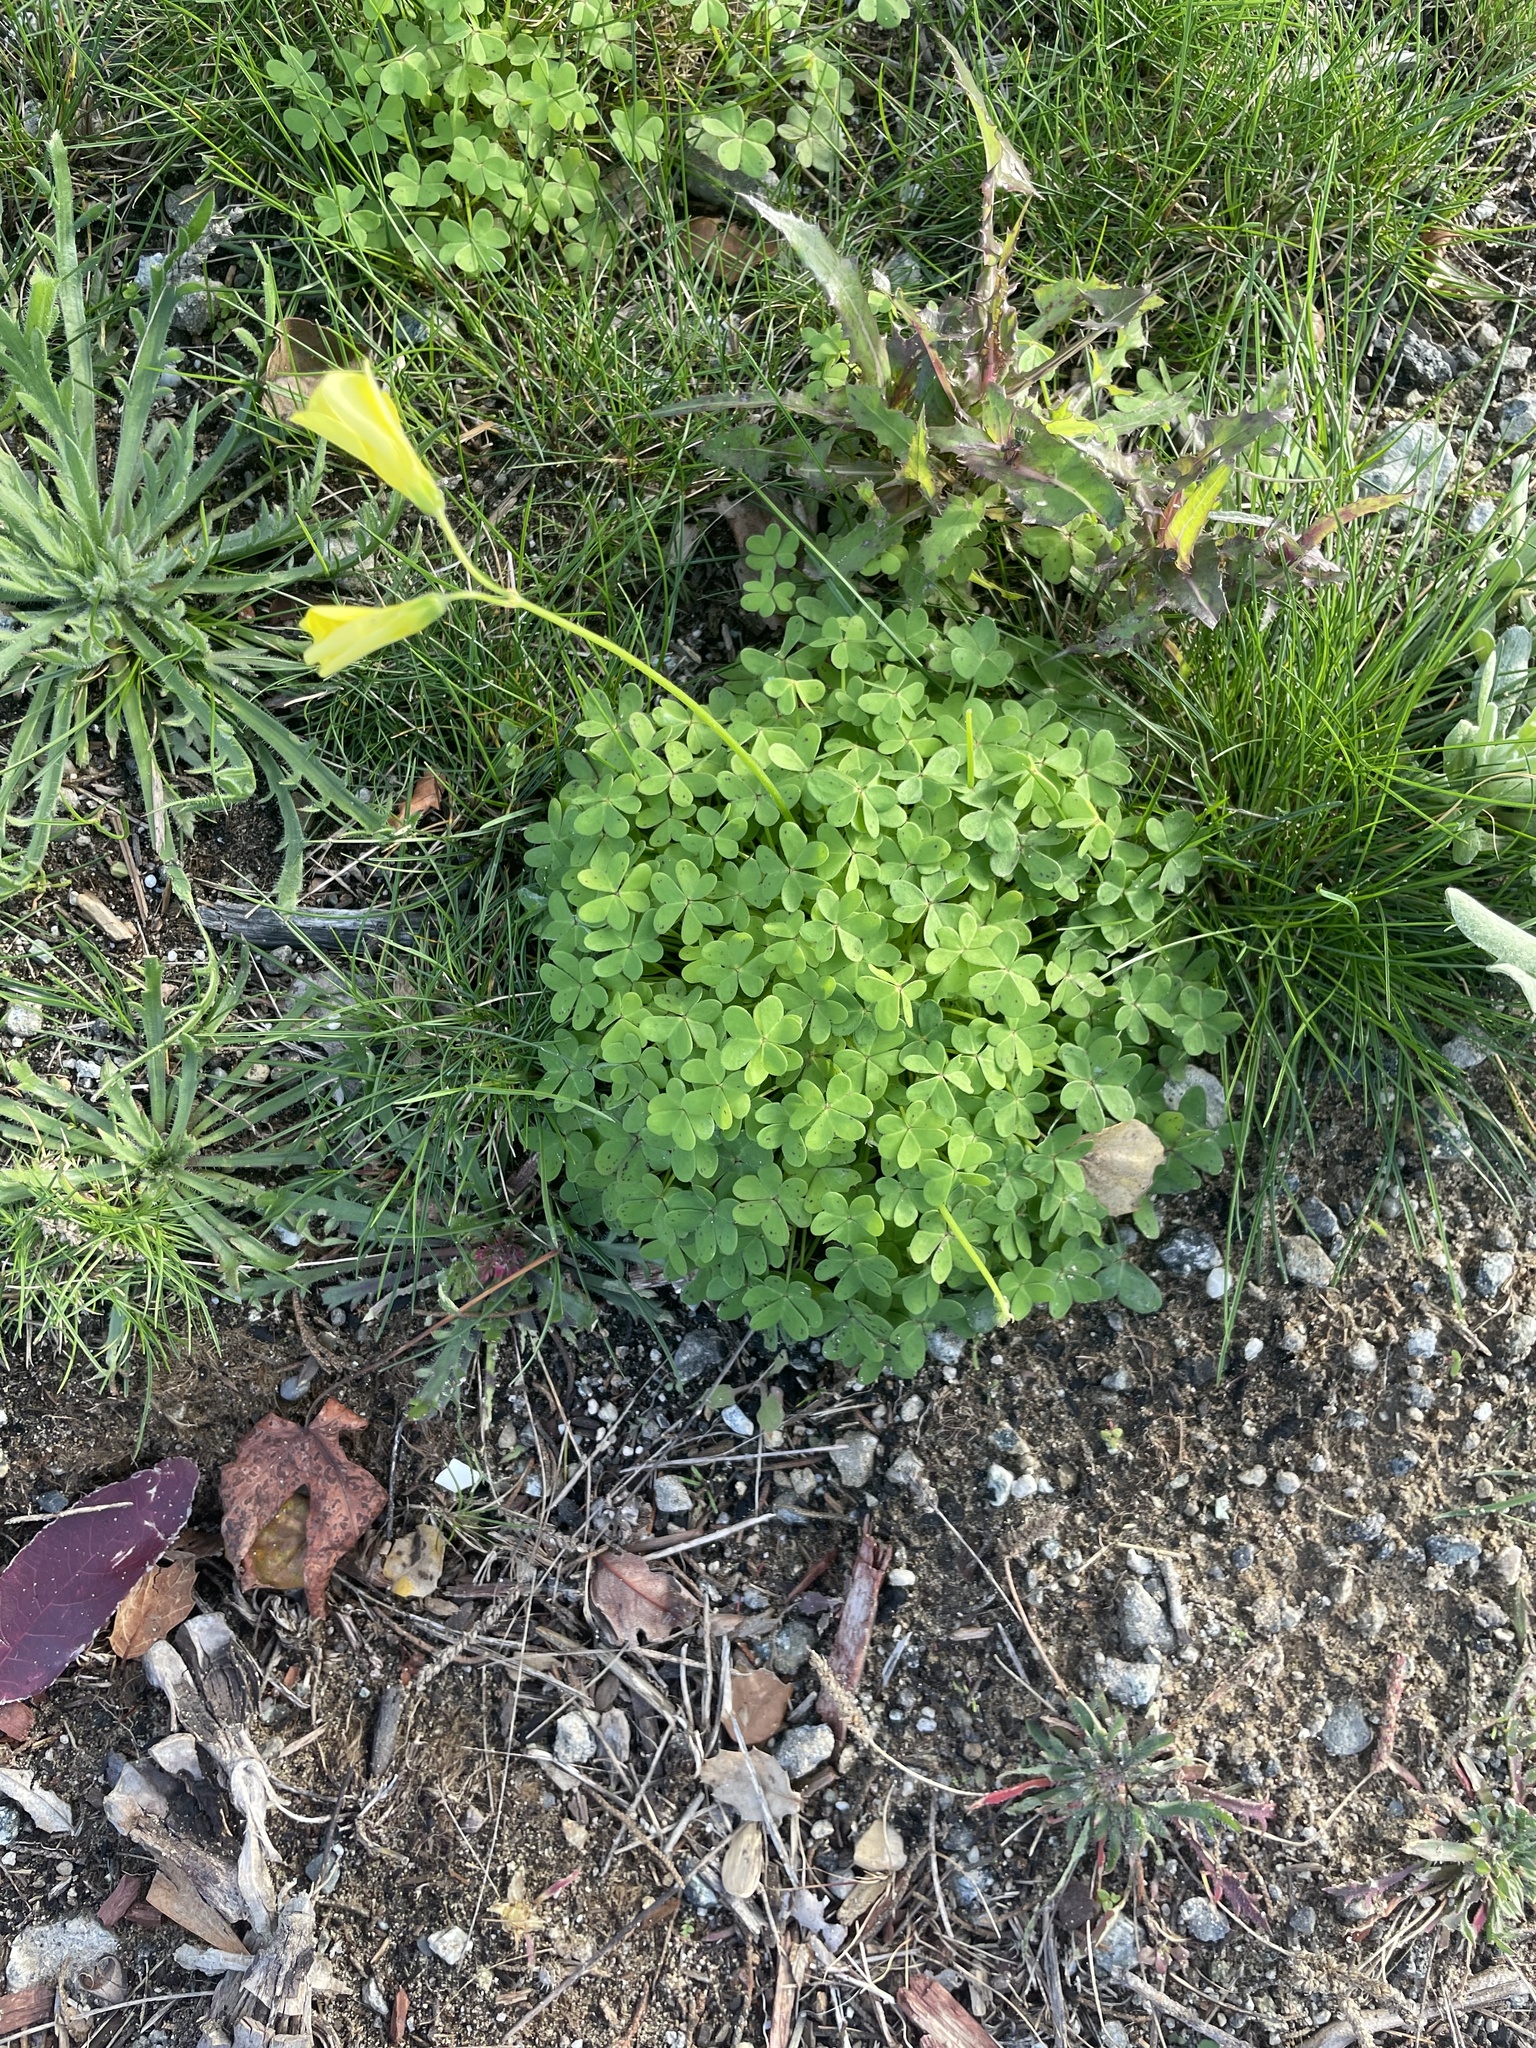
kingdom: Plantae
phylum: Tracheophyta
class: Magnoliopsida
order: Oxalidales
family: Oxalidaceae
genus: Oxalis
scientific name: Oxalis pes-caprae
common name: Bermuda-buttercup
